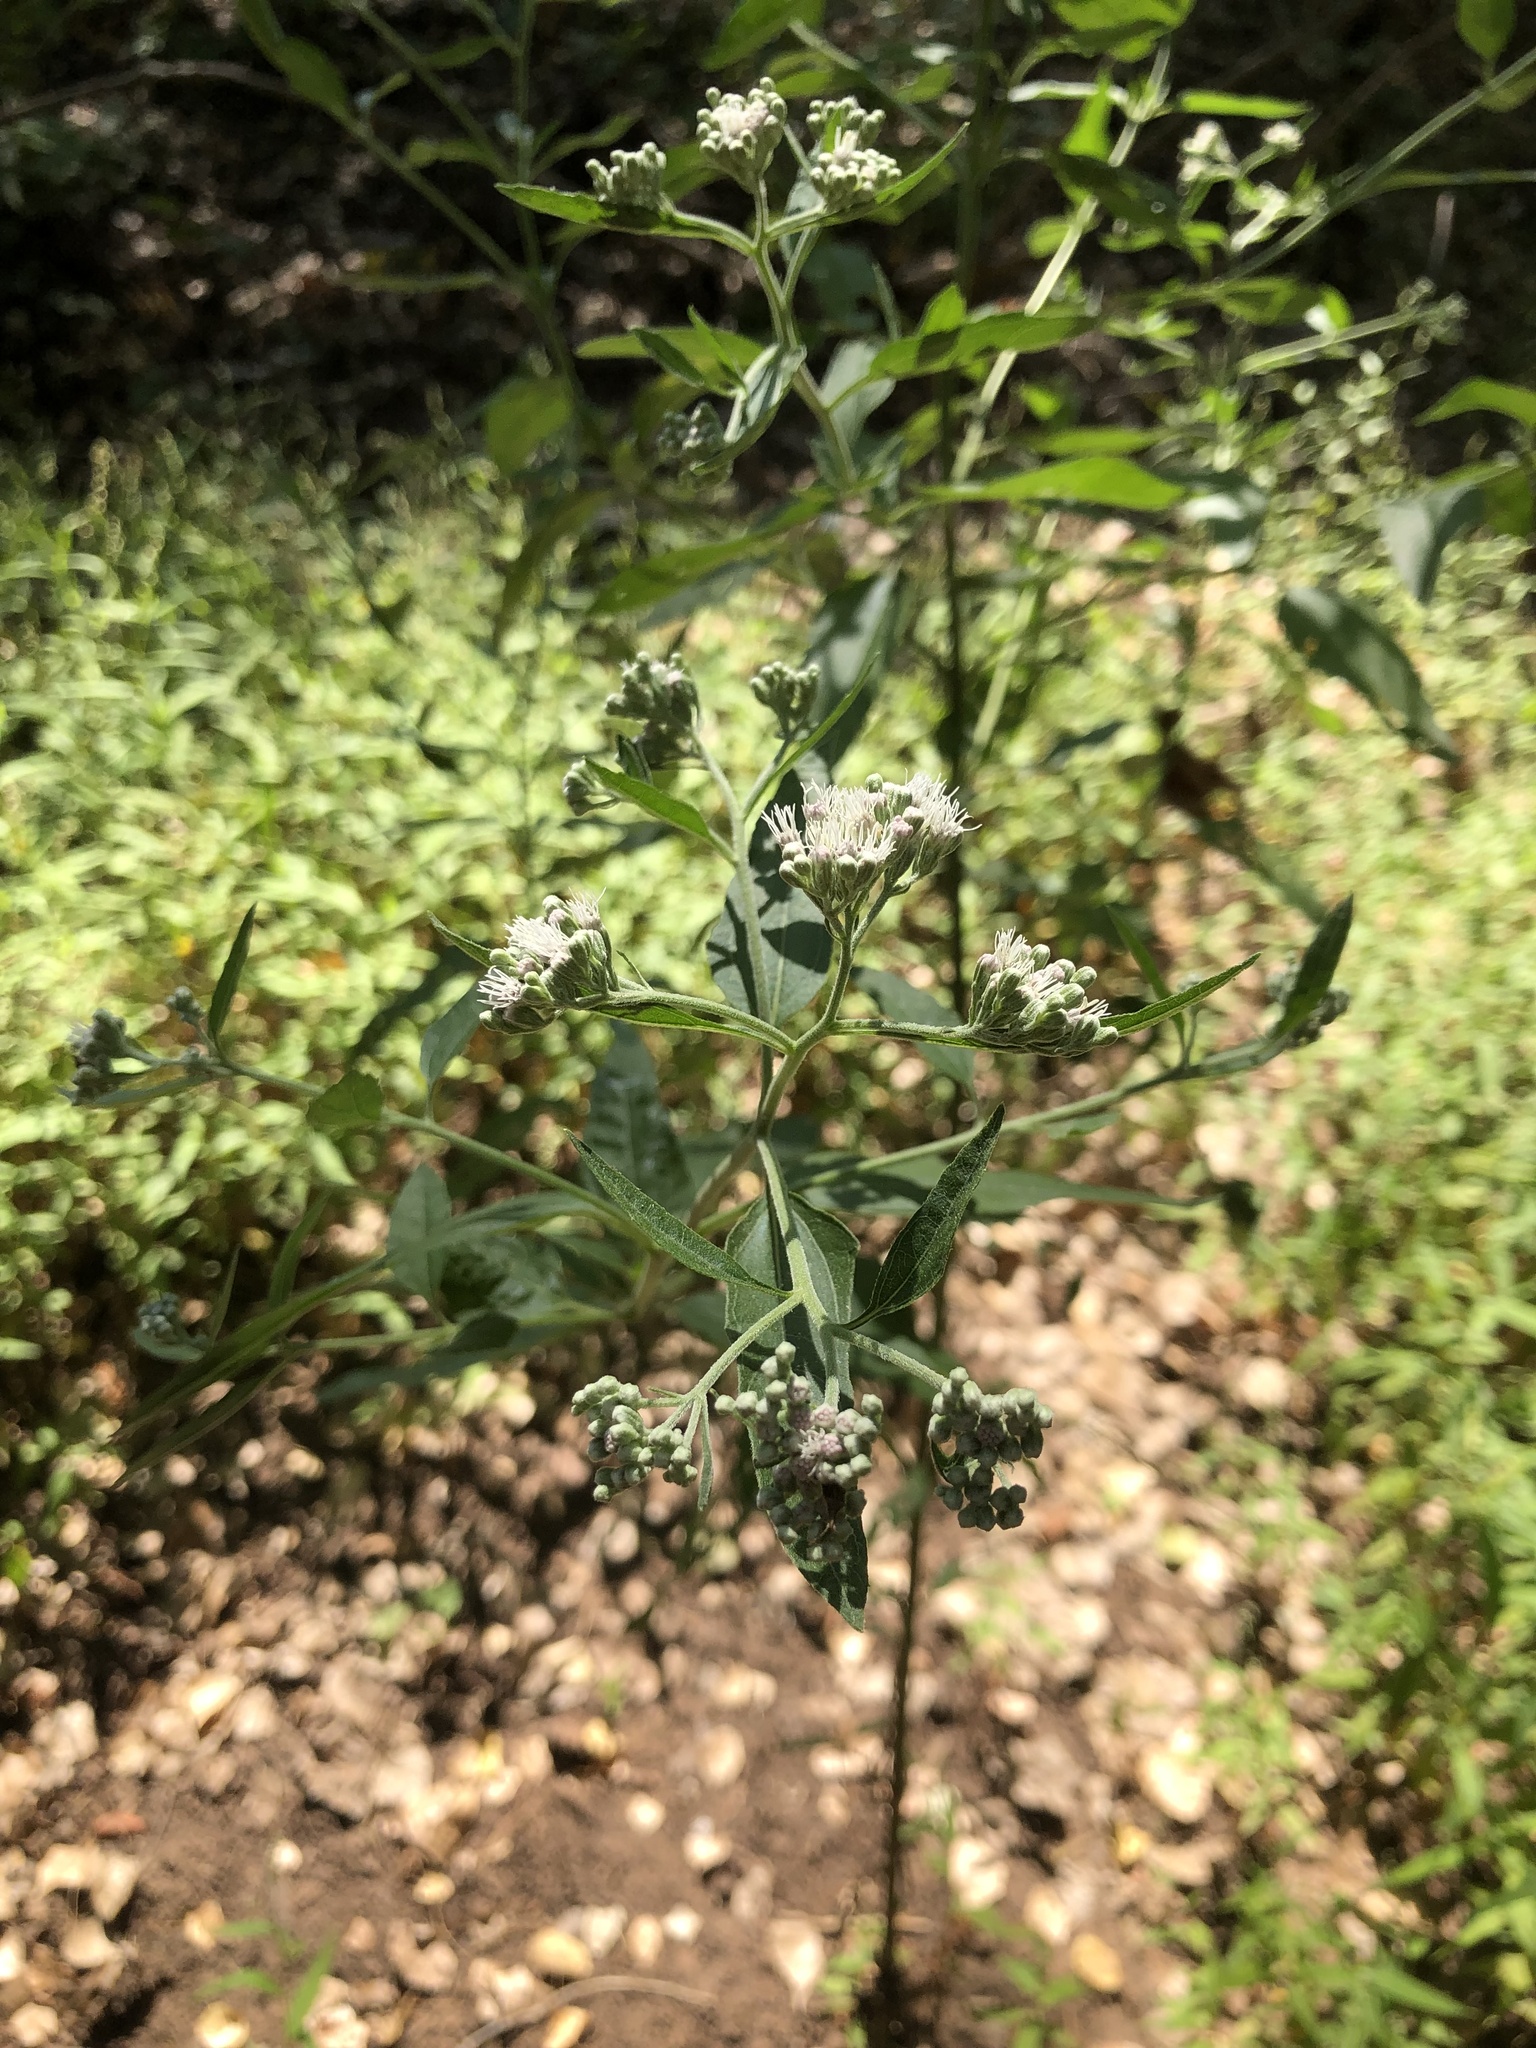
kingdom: Plantae
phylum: Tracheophyta
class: Magnoliopsida
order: Asterales
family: Asteraceae
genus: Eupatorium
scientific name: Eupatorium serotinum
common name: Late boneset
